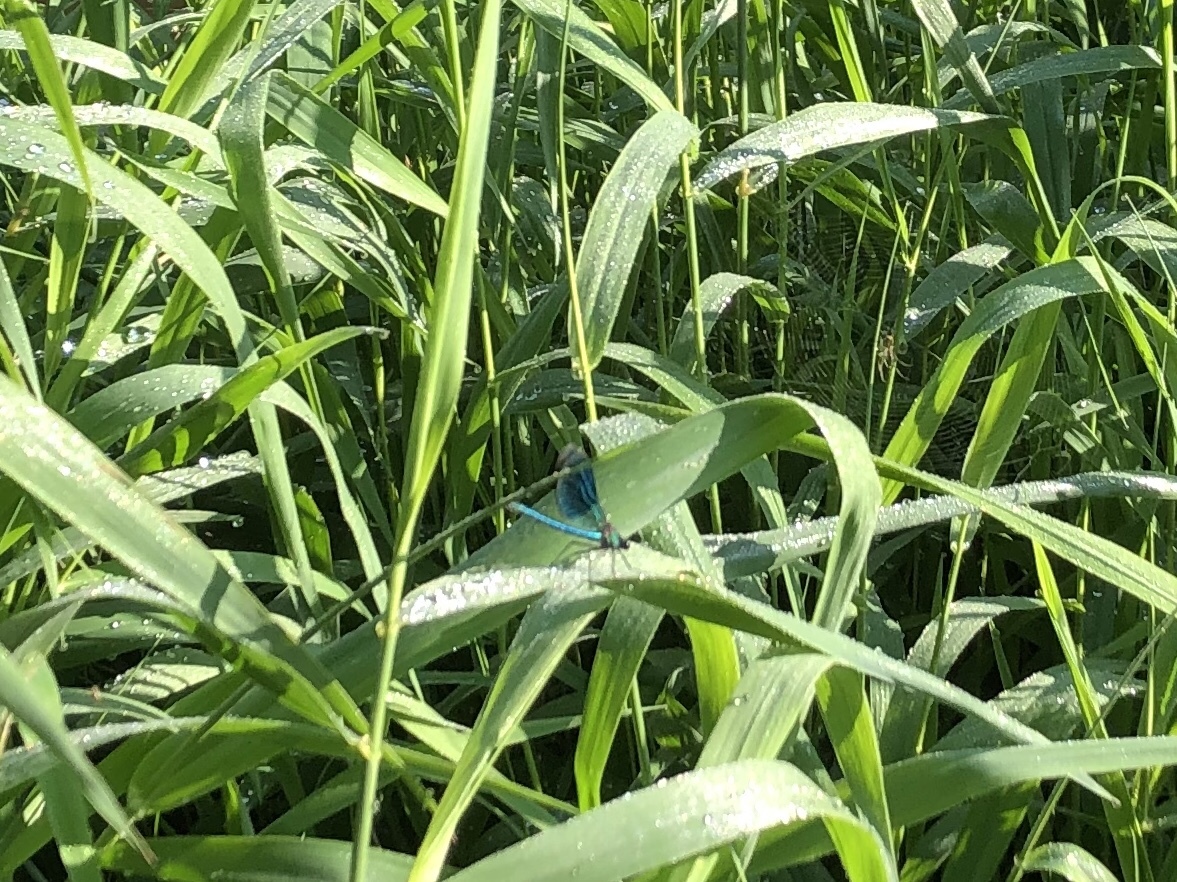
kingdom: Animalia
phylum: Arthropoda
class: Insecta
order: Odonata
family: Calopterygidae
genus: Calopteryx
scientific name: Calopteryx splendens
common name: Banded demoiselle
